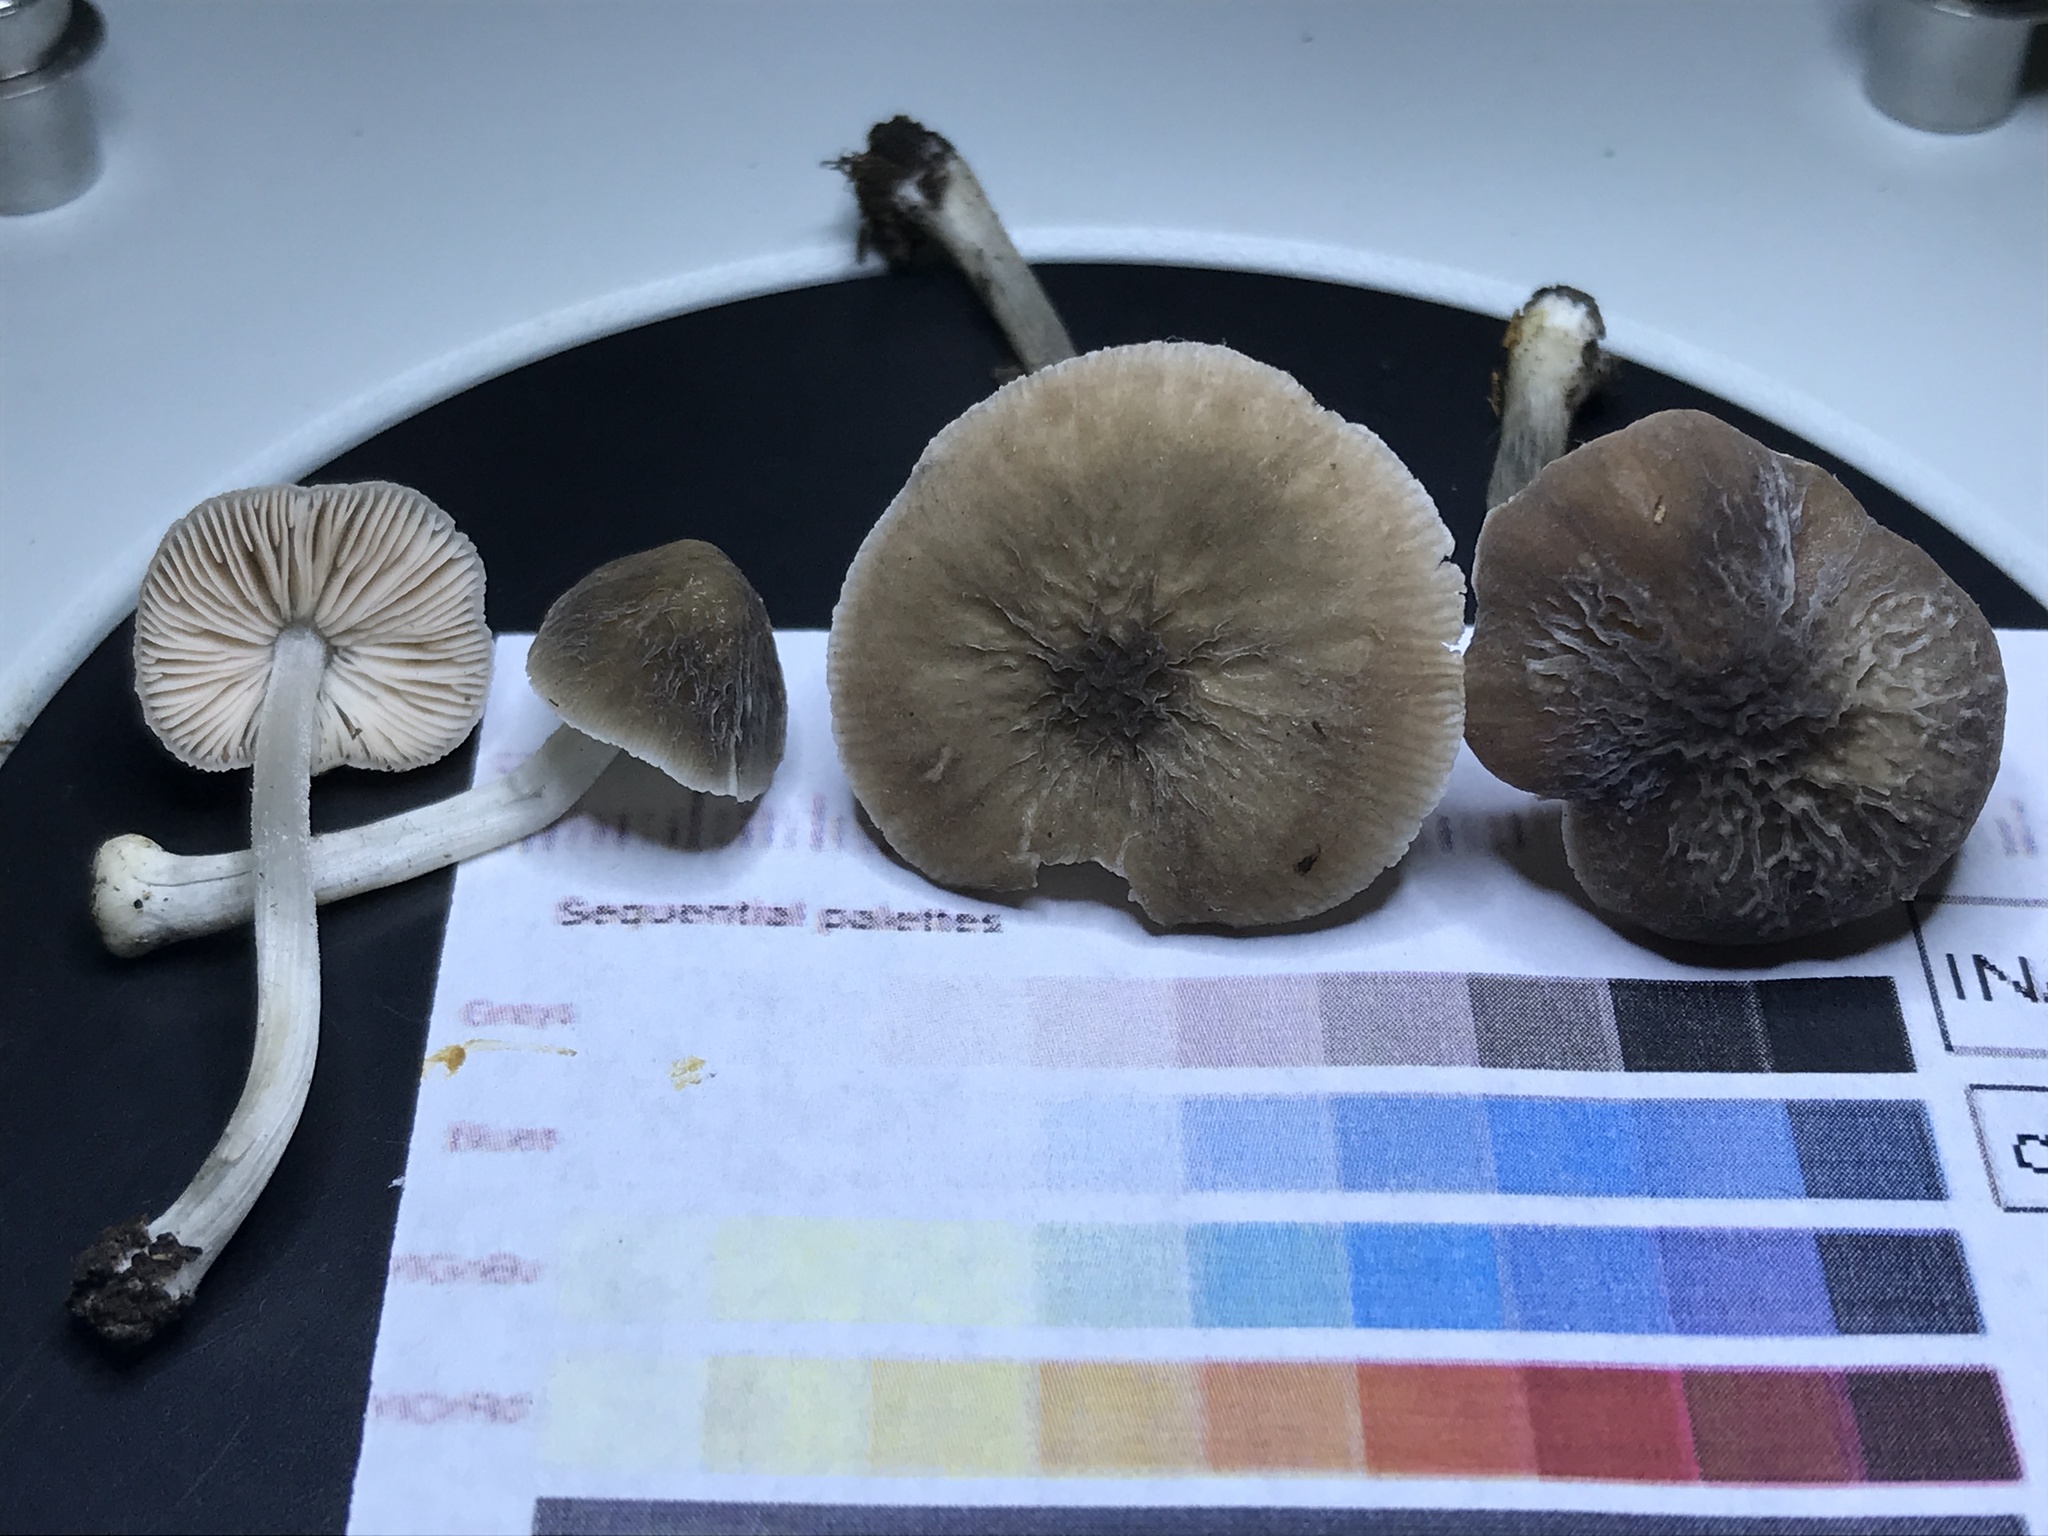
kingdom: Fungi
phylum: Basidiomycota
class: Agaricomycetes
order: Agaricales
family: Pluteaceae
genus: Pluteus
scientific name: Pluteus thomsonii
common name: Veined shield
